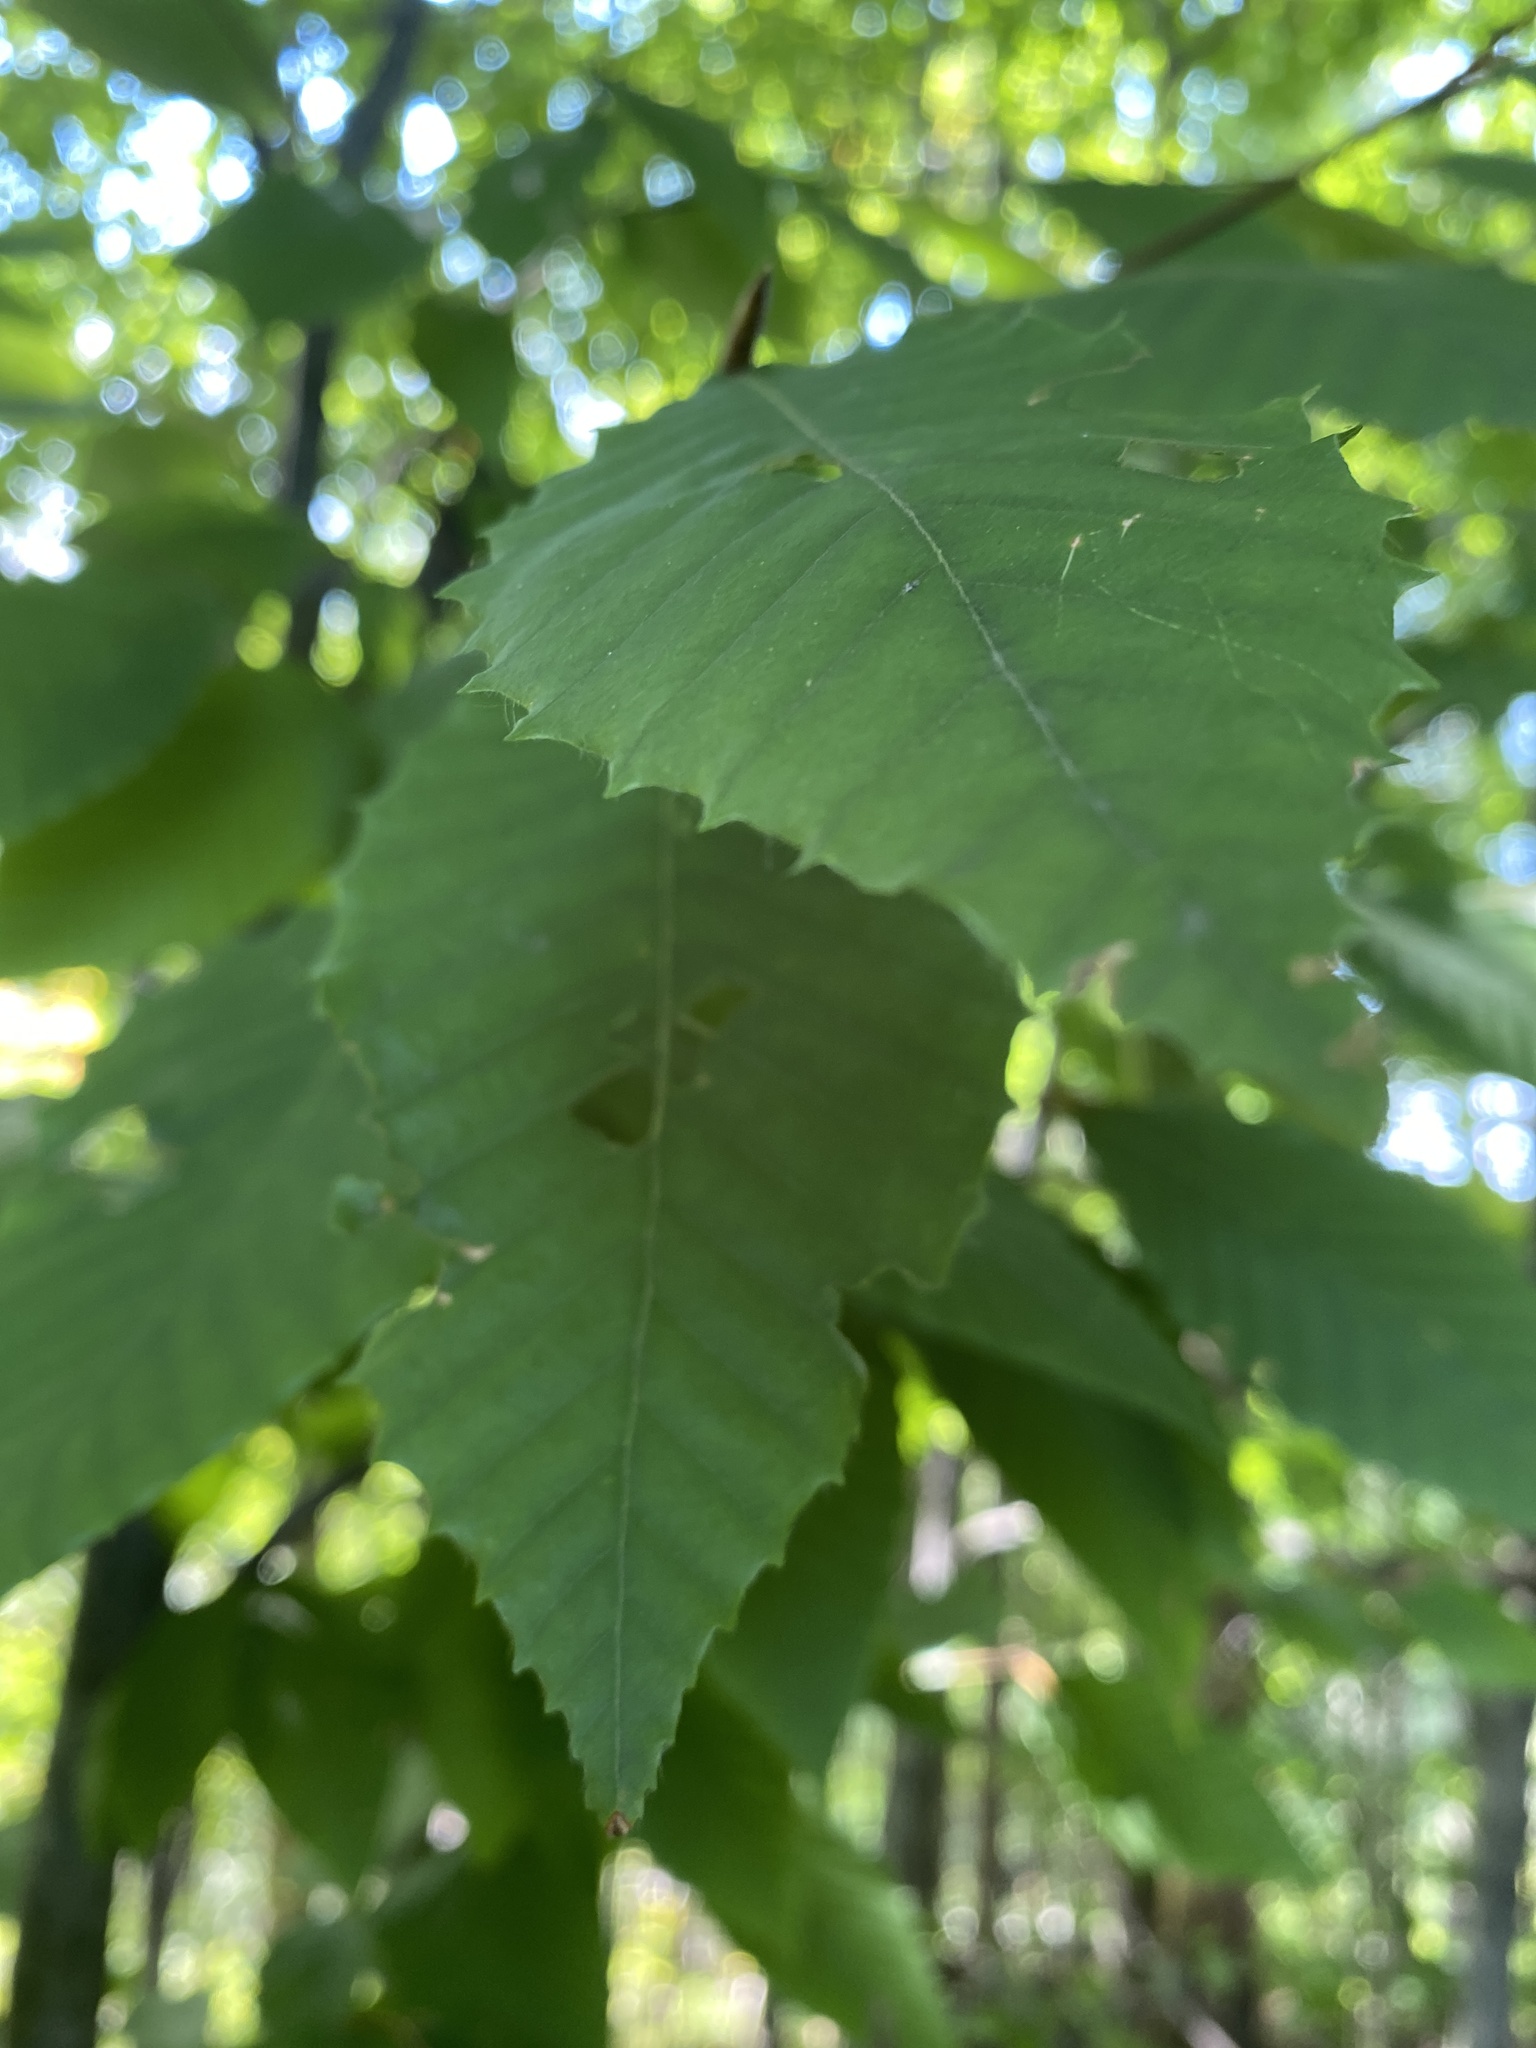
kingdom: Plantae
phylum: Tracheophyta
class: Magnoliopsida
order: Fagales
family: Fagaceae
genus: Fagus
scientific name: Fagus grandifolia
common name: American beech
